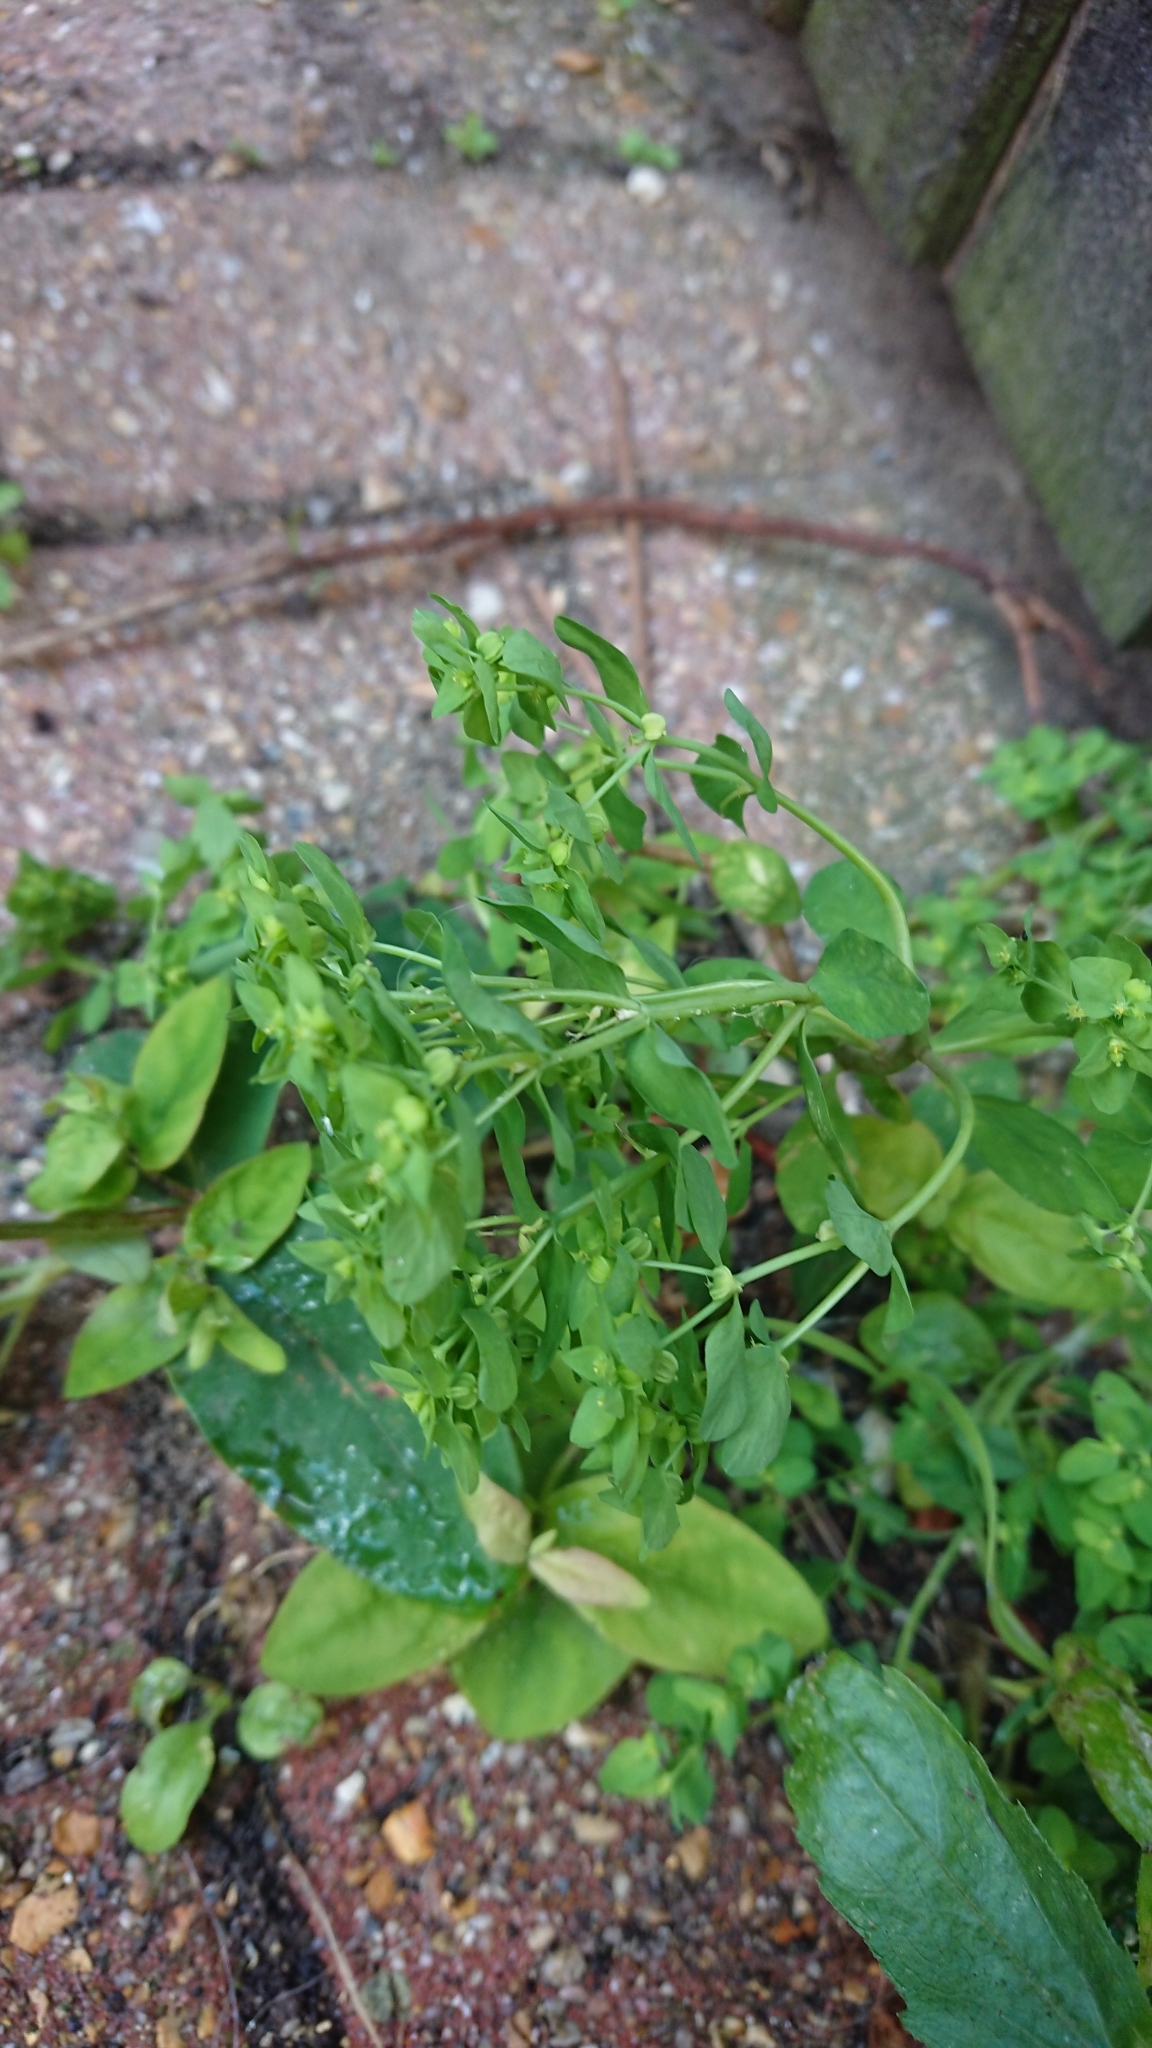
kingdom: Plantae
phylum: Tracheophyta
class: Magnoliopsida
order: Malpighiales
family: Euphorbiaceae
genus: Euphorbia
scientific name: Euphorbia peplus
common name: Petty spurge
